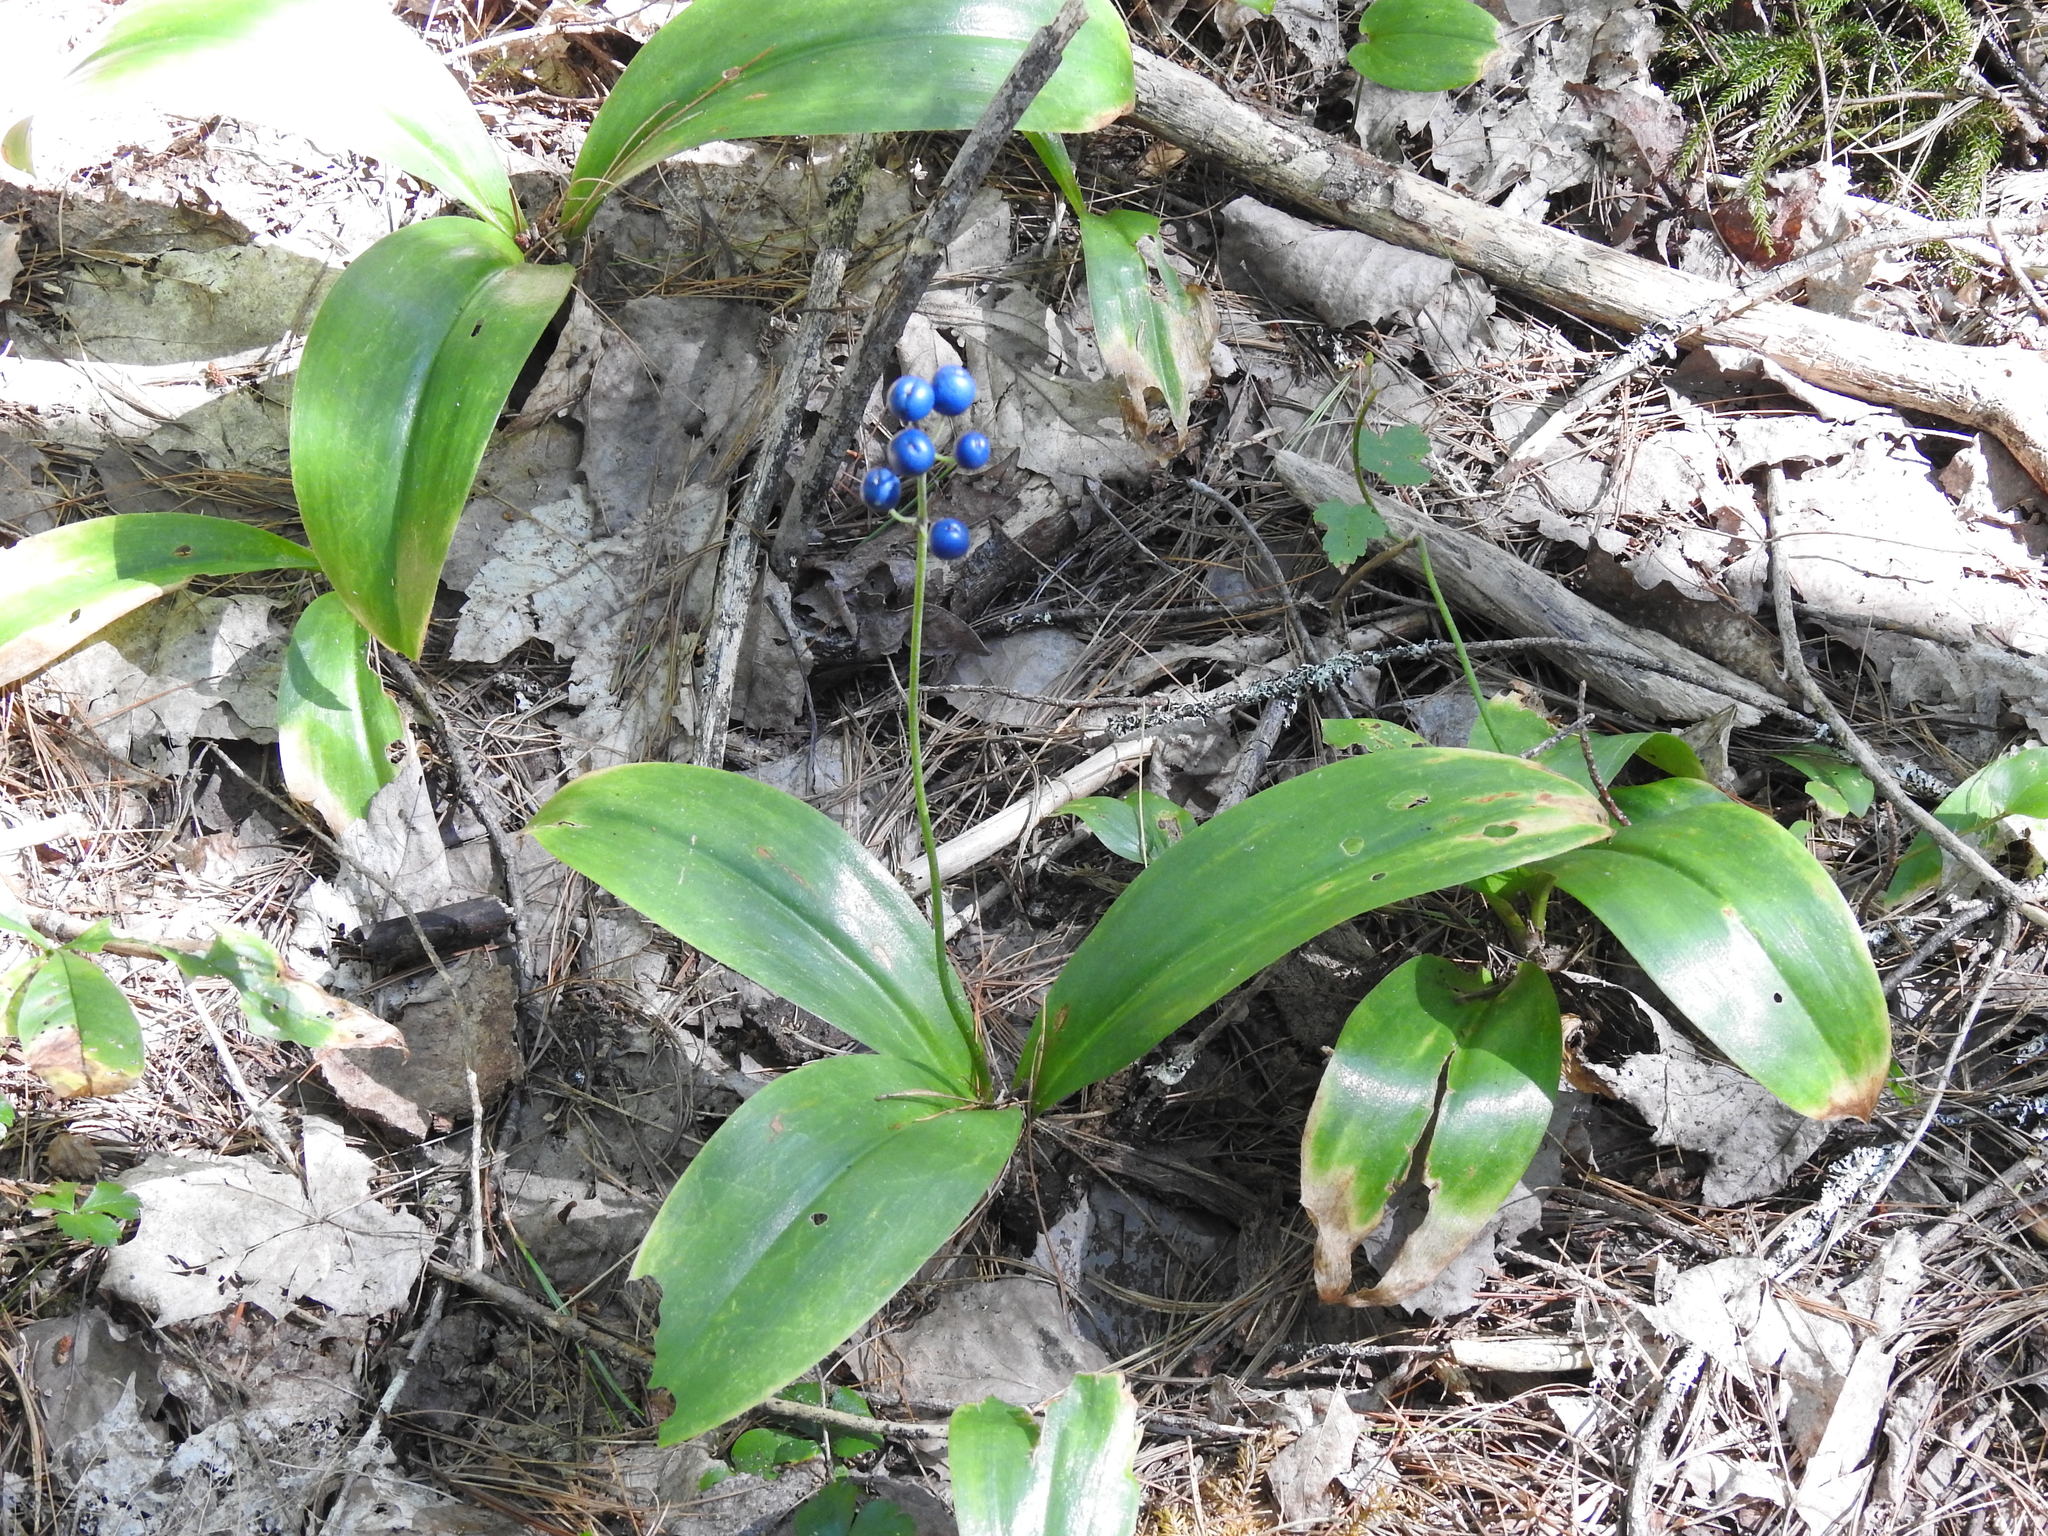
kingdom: Plantae
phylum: Tracheophyta
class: Liliopsida
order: Liliales
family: Liliaceae
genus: Clintonia
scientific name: Clintonia borealis
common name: Yellow clintonia
